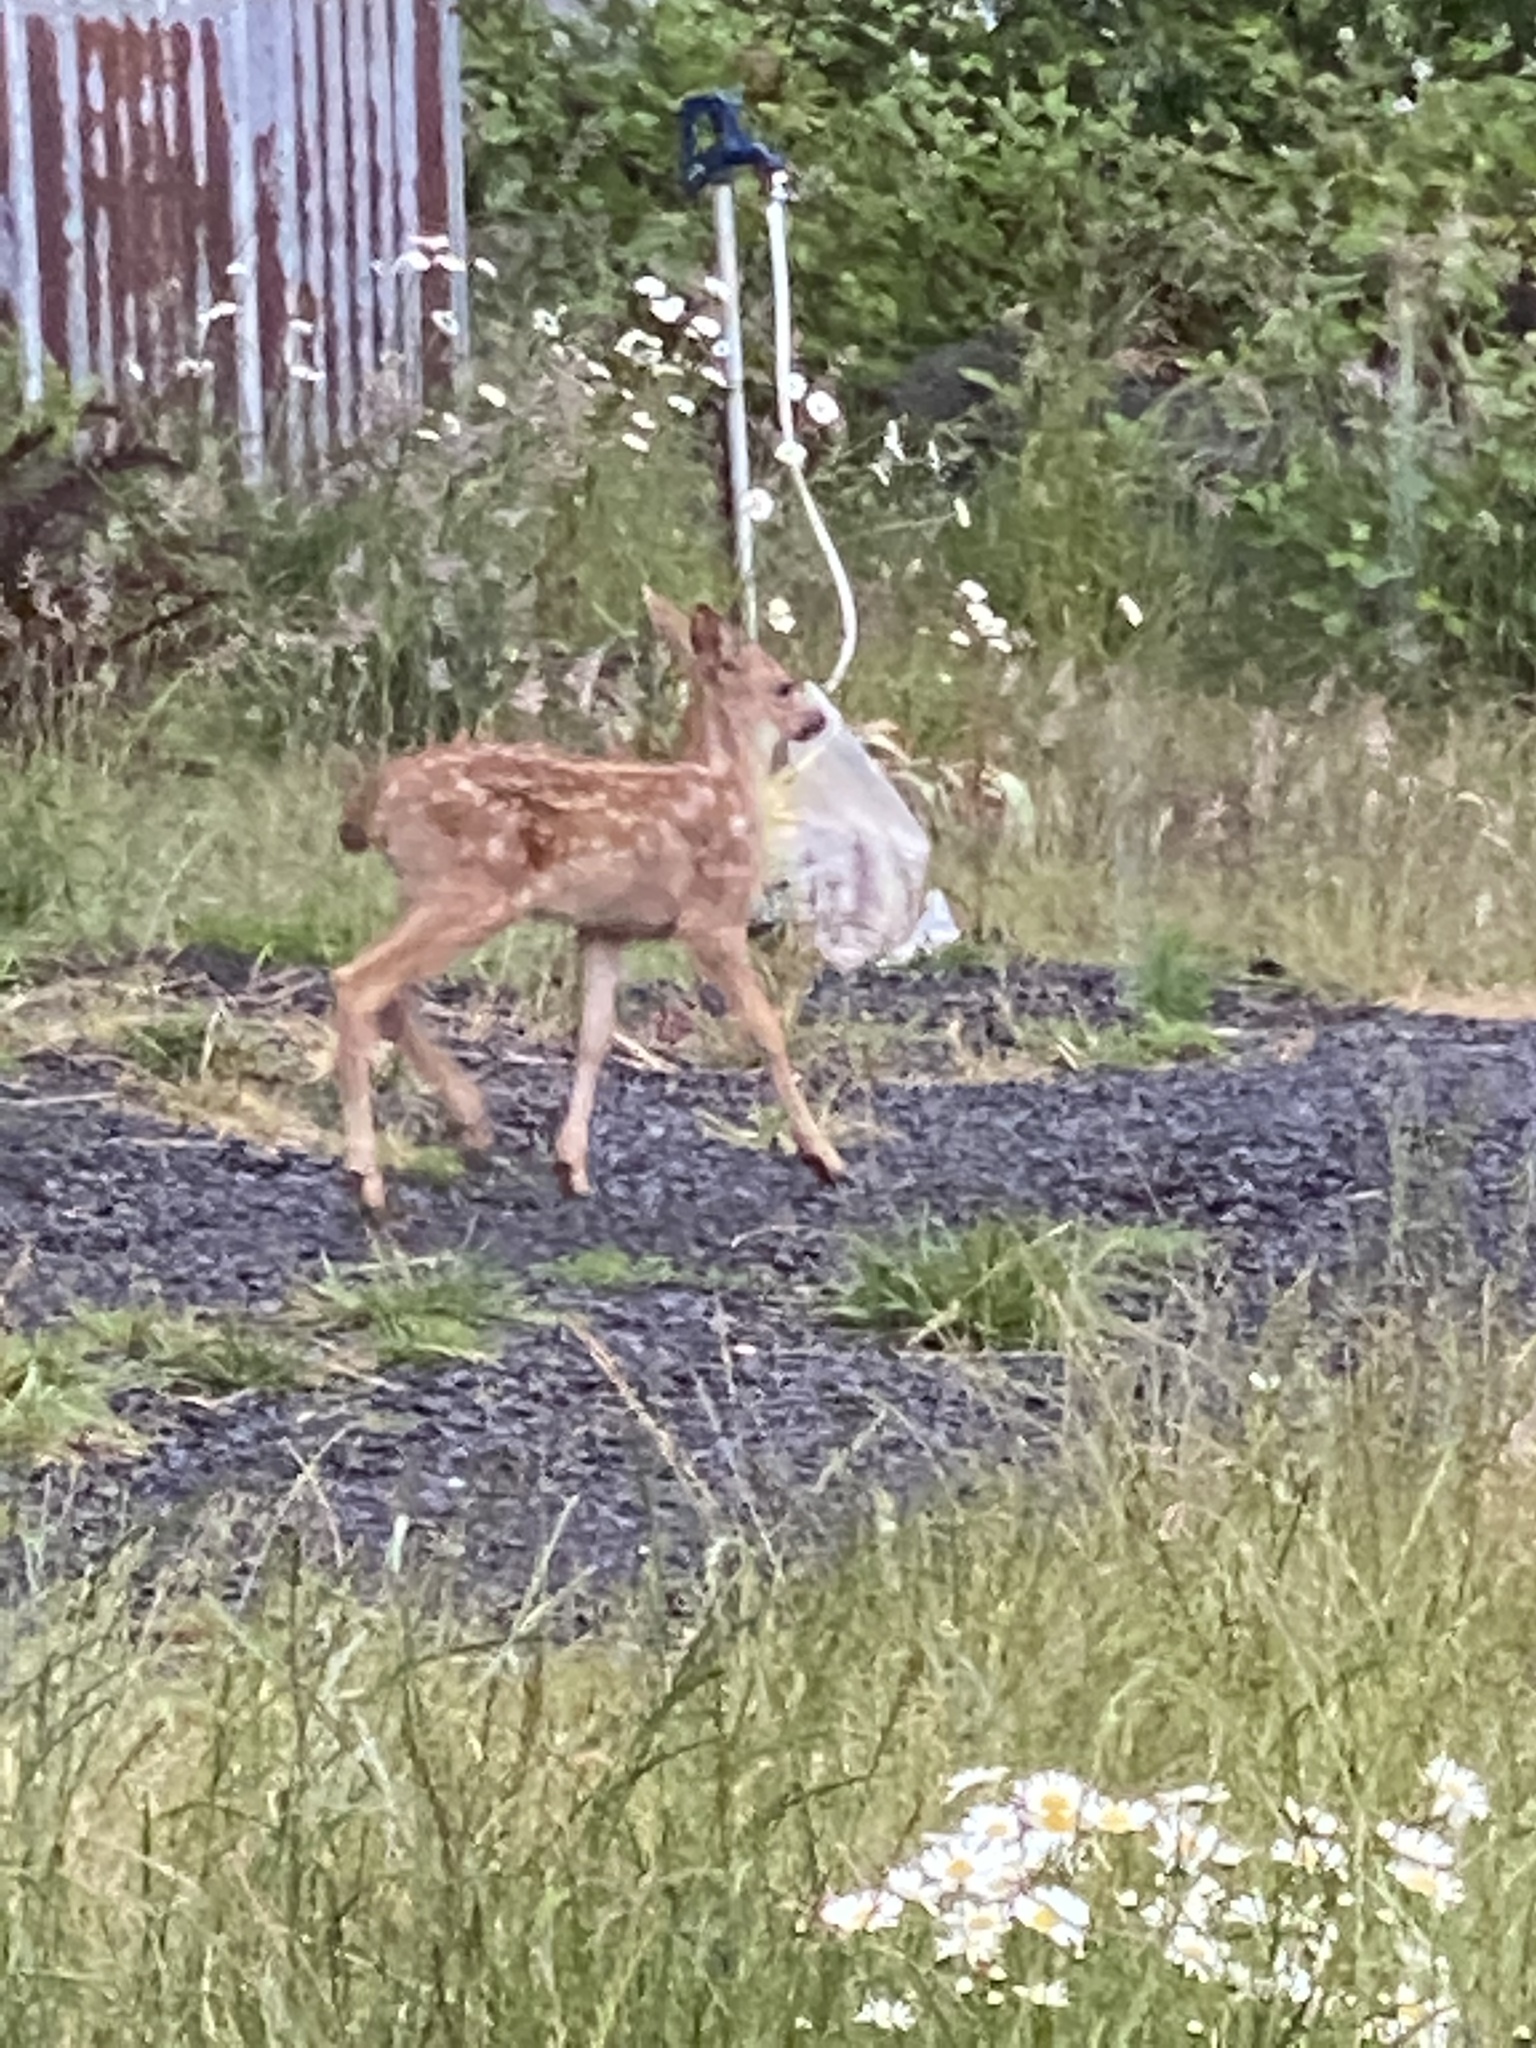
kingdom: Animalia
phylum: Chordata
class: Mammalia
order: Artiodactyla
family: Cervidae
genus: Odocoileus
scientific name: Odocoileus hemionus
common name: Mule deer
